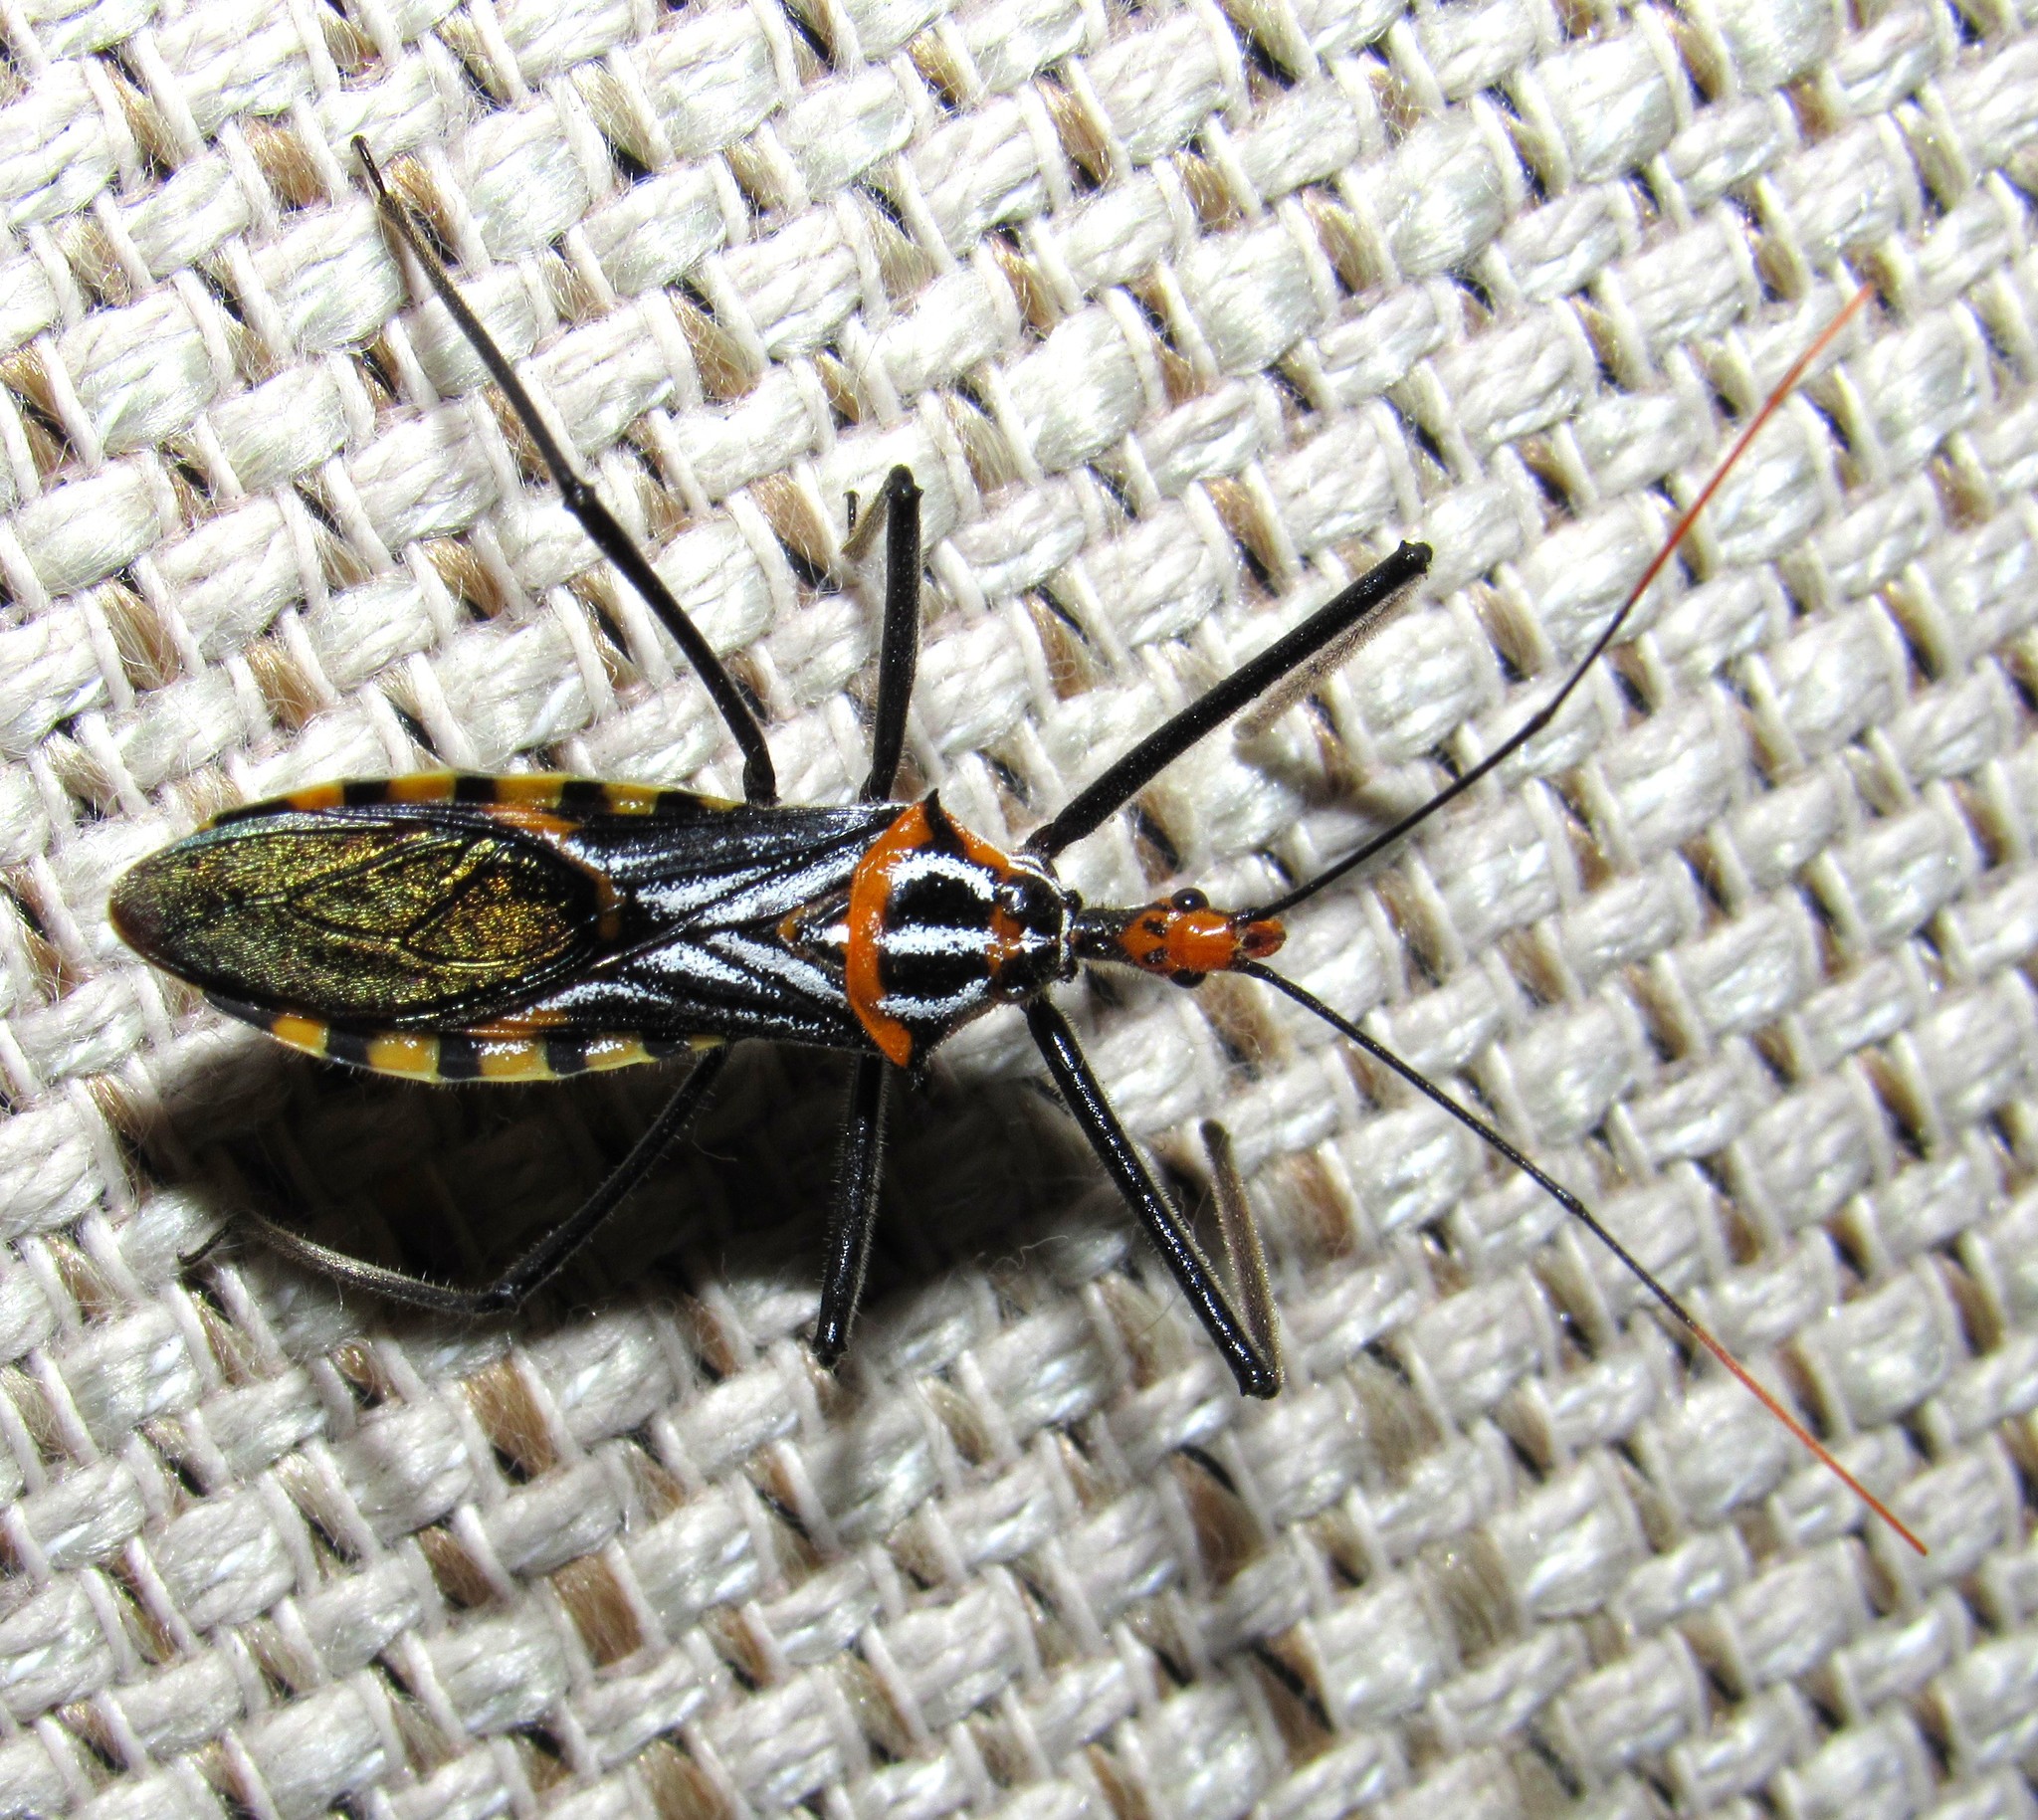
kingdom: Animalia
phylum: Arthropoda
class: Insecta
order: Hemiptera
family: Reduviidae
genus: Zelus
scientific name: Zelus leucogrammus
